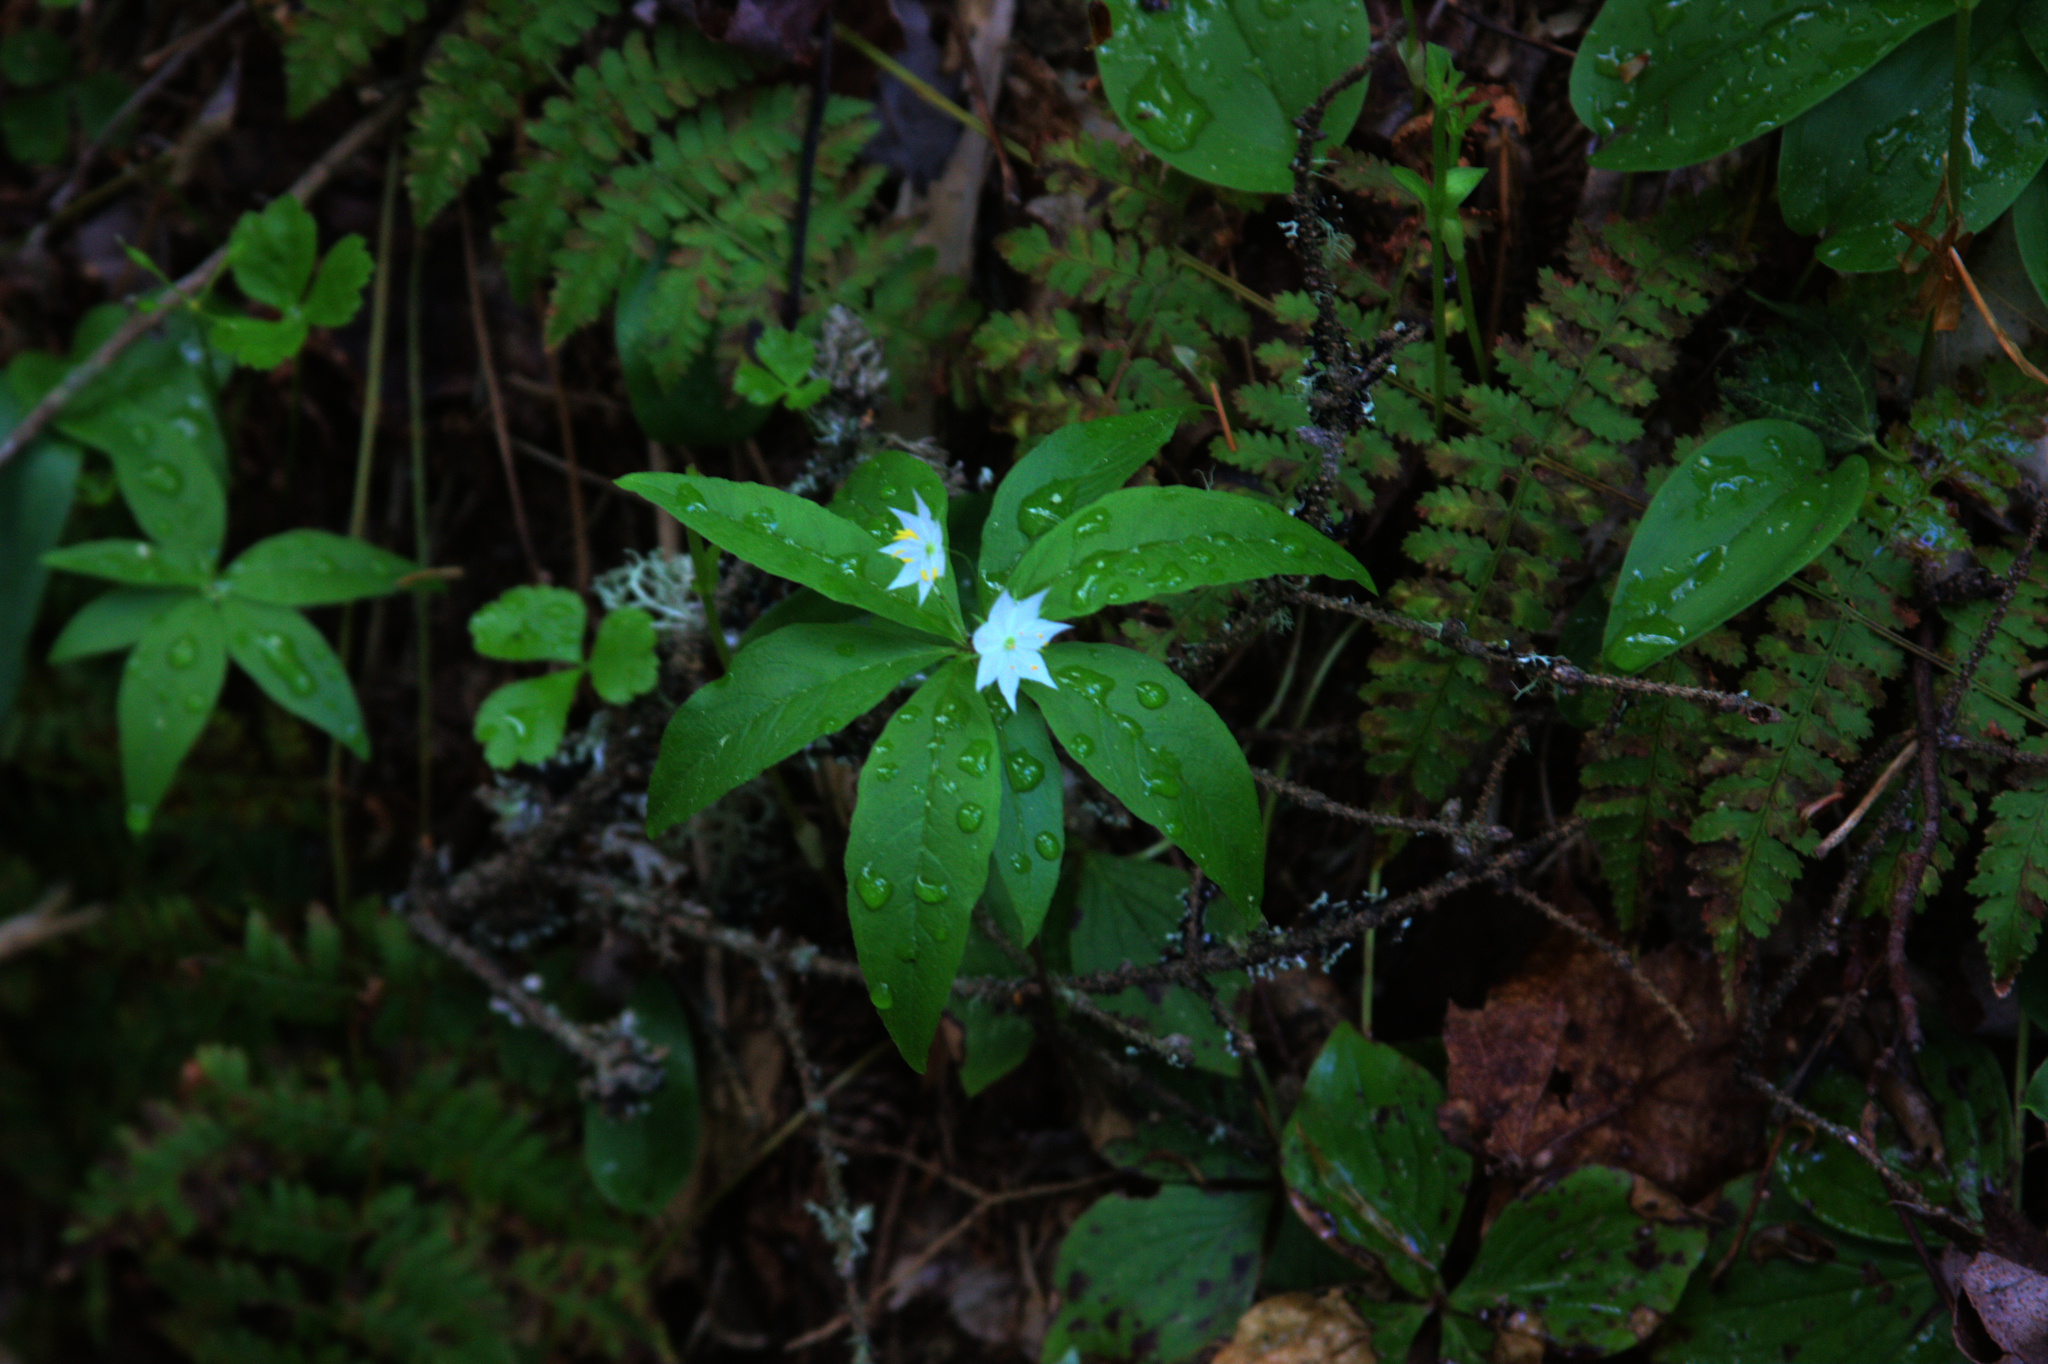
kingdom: Plantae
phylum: Tracheophyta
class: Magnoliopsida
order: Ericales
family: Primulaceae
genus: Lysimachia
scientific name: Lysimachia borealis
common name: American starflower
